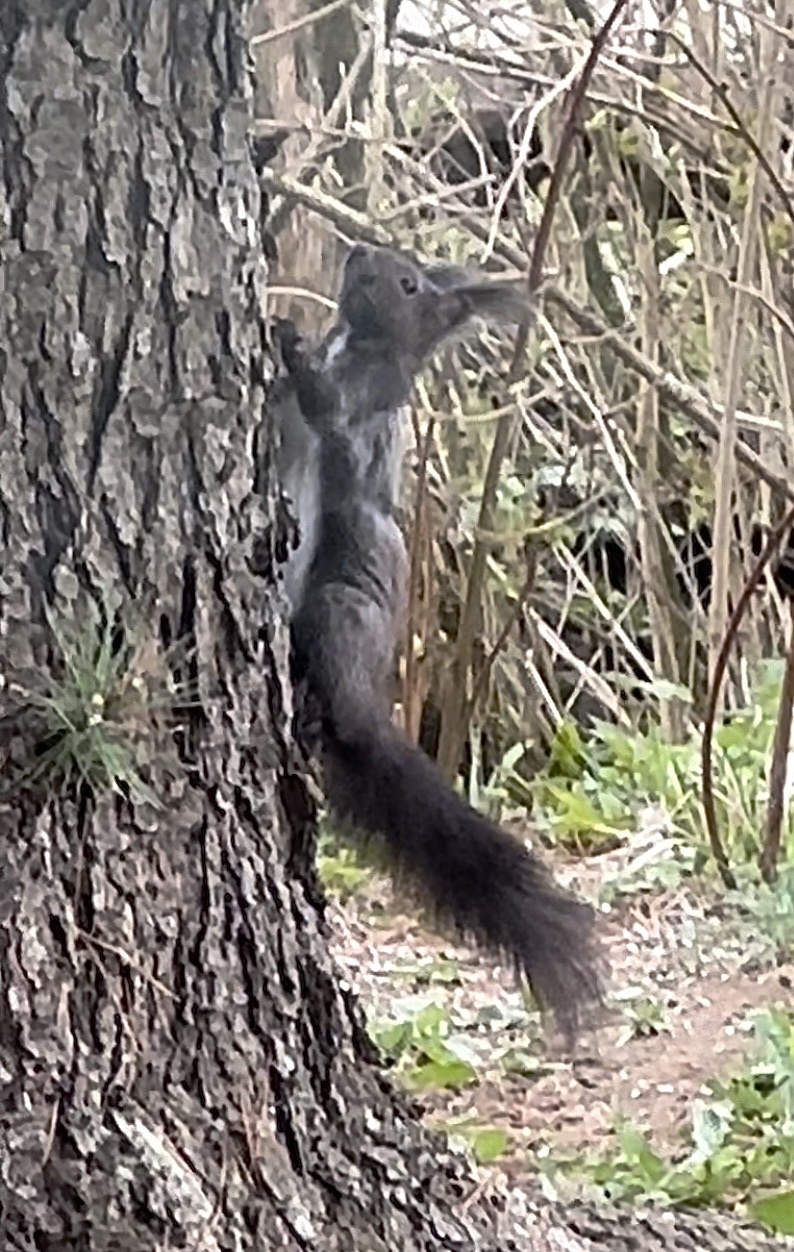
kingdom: Animalia
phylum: Chordata
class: Mammalia
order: Rodentia
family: Sciuridae
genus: Sciurus
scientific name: Sciurus vulgaris
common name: Eurasian red squirrel
